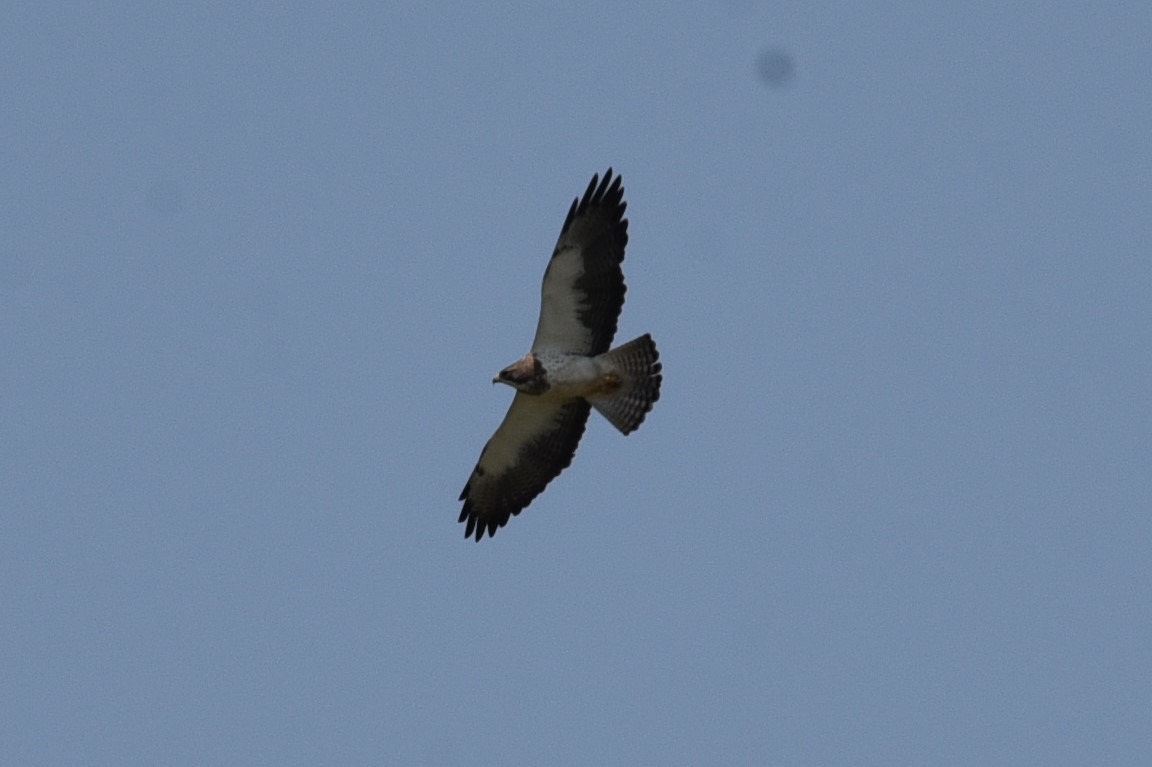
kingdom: Animalia
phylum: Chordata
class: Aves
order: Accipitriformes
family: Accipitridae
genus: Buteo
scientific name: Buteo swainsoni
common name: Swainson's hawk
